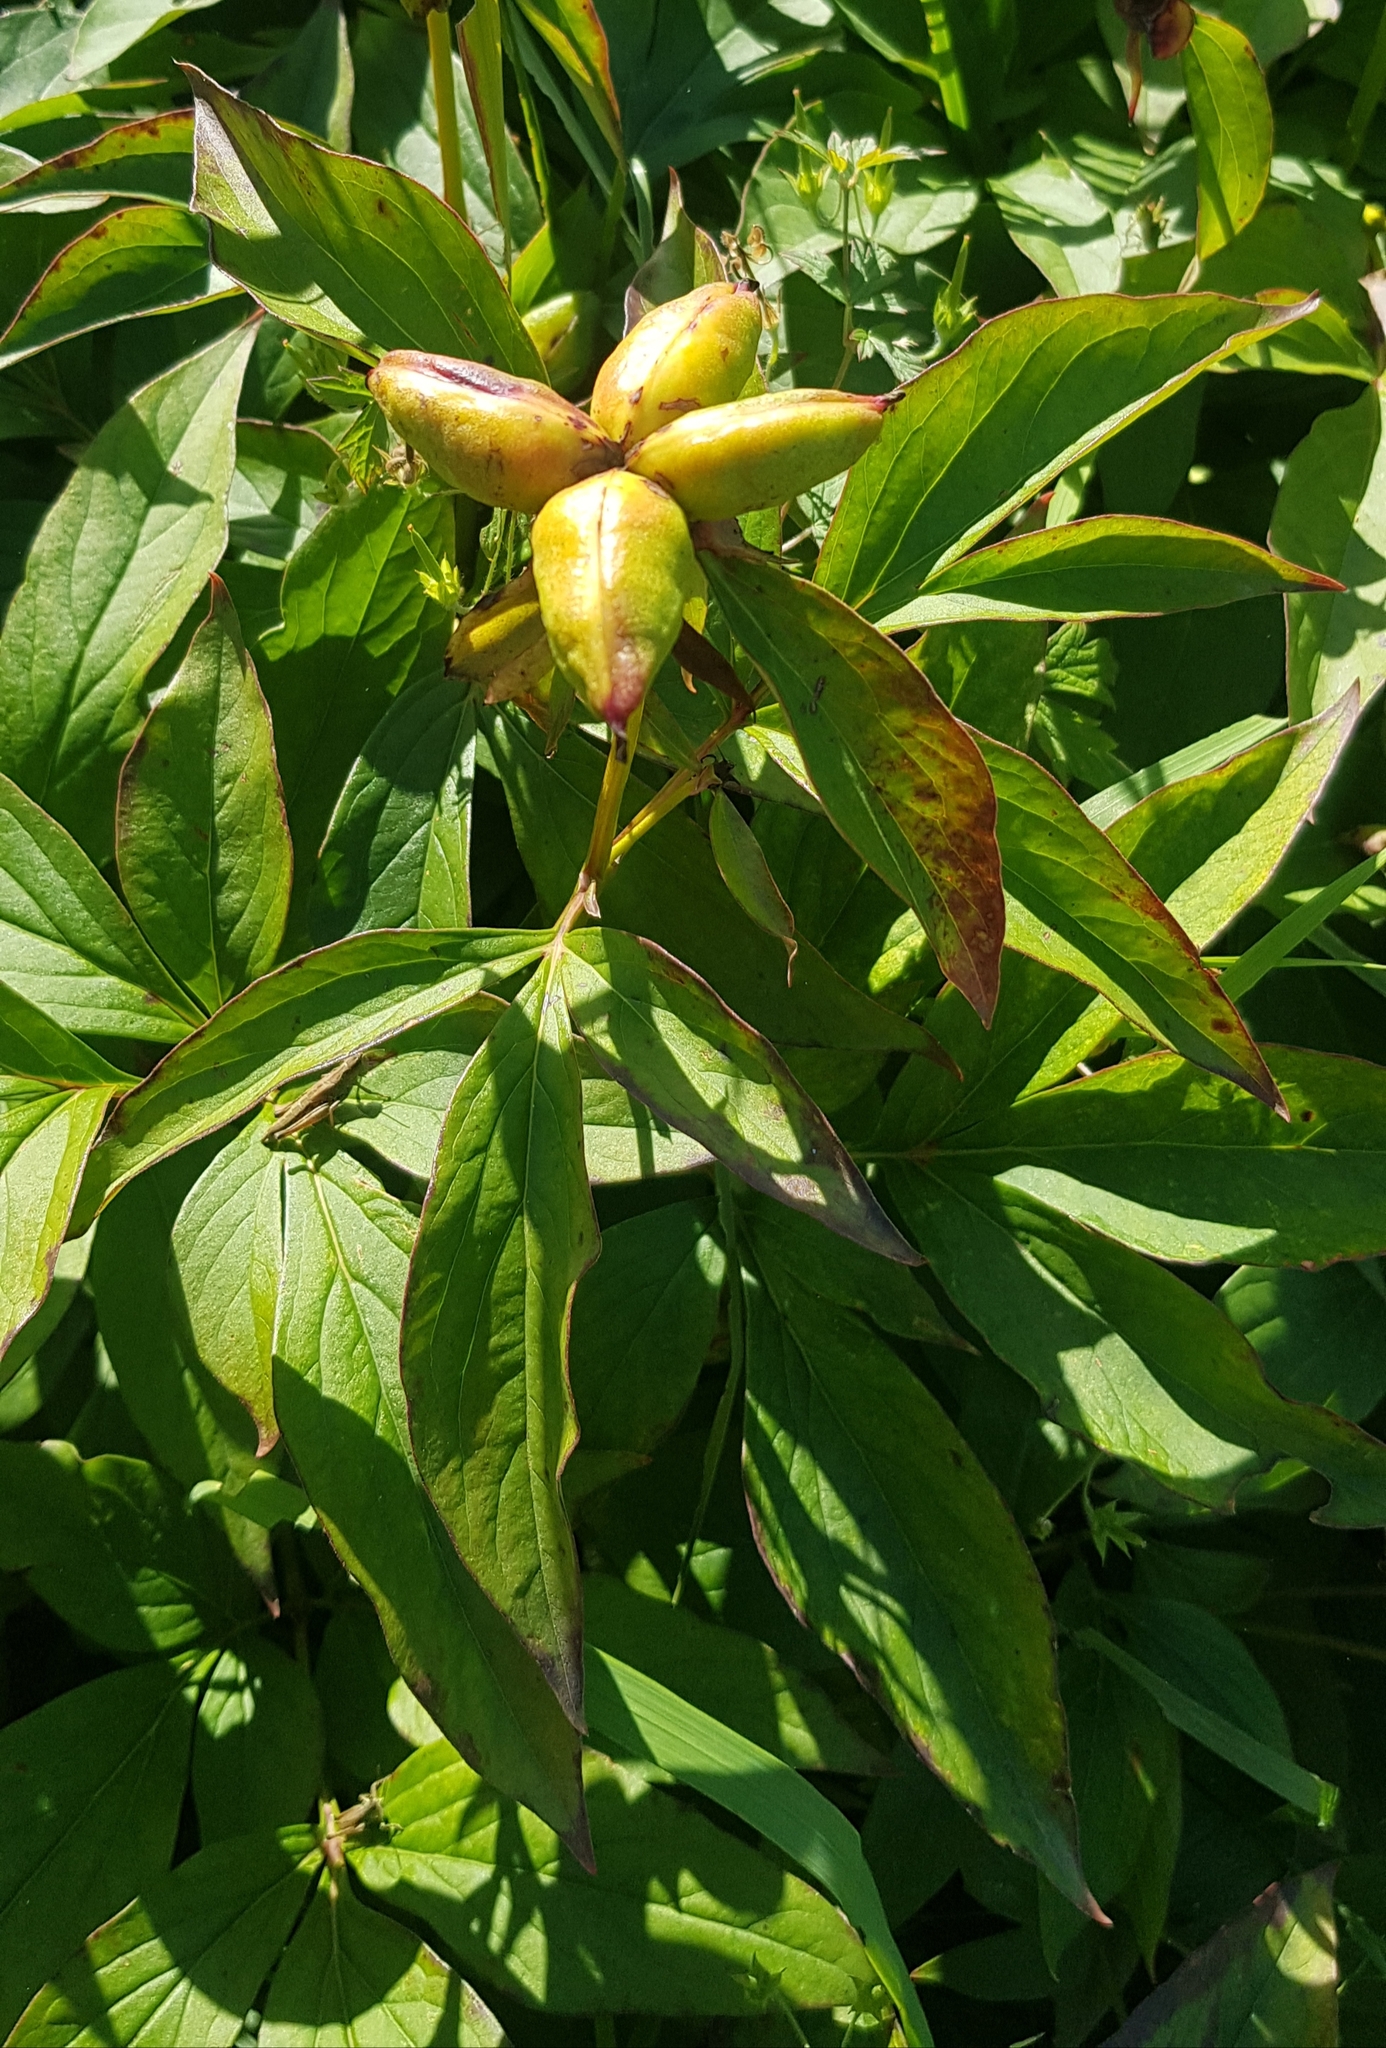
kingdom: Plantae
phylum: Tracheophyta
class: Magnoliopsida
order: Saxifragales
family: Paeoniaceae
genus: Paeonia
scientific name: Paeonia lactiflora
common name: Chinese peony
